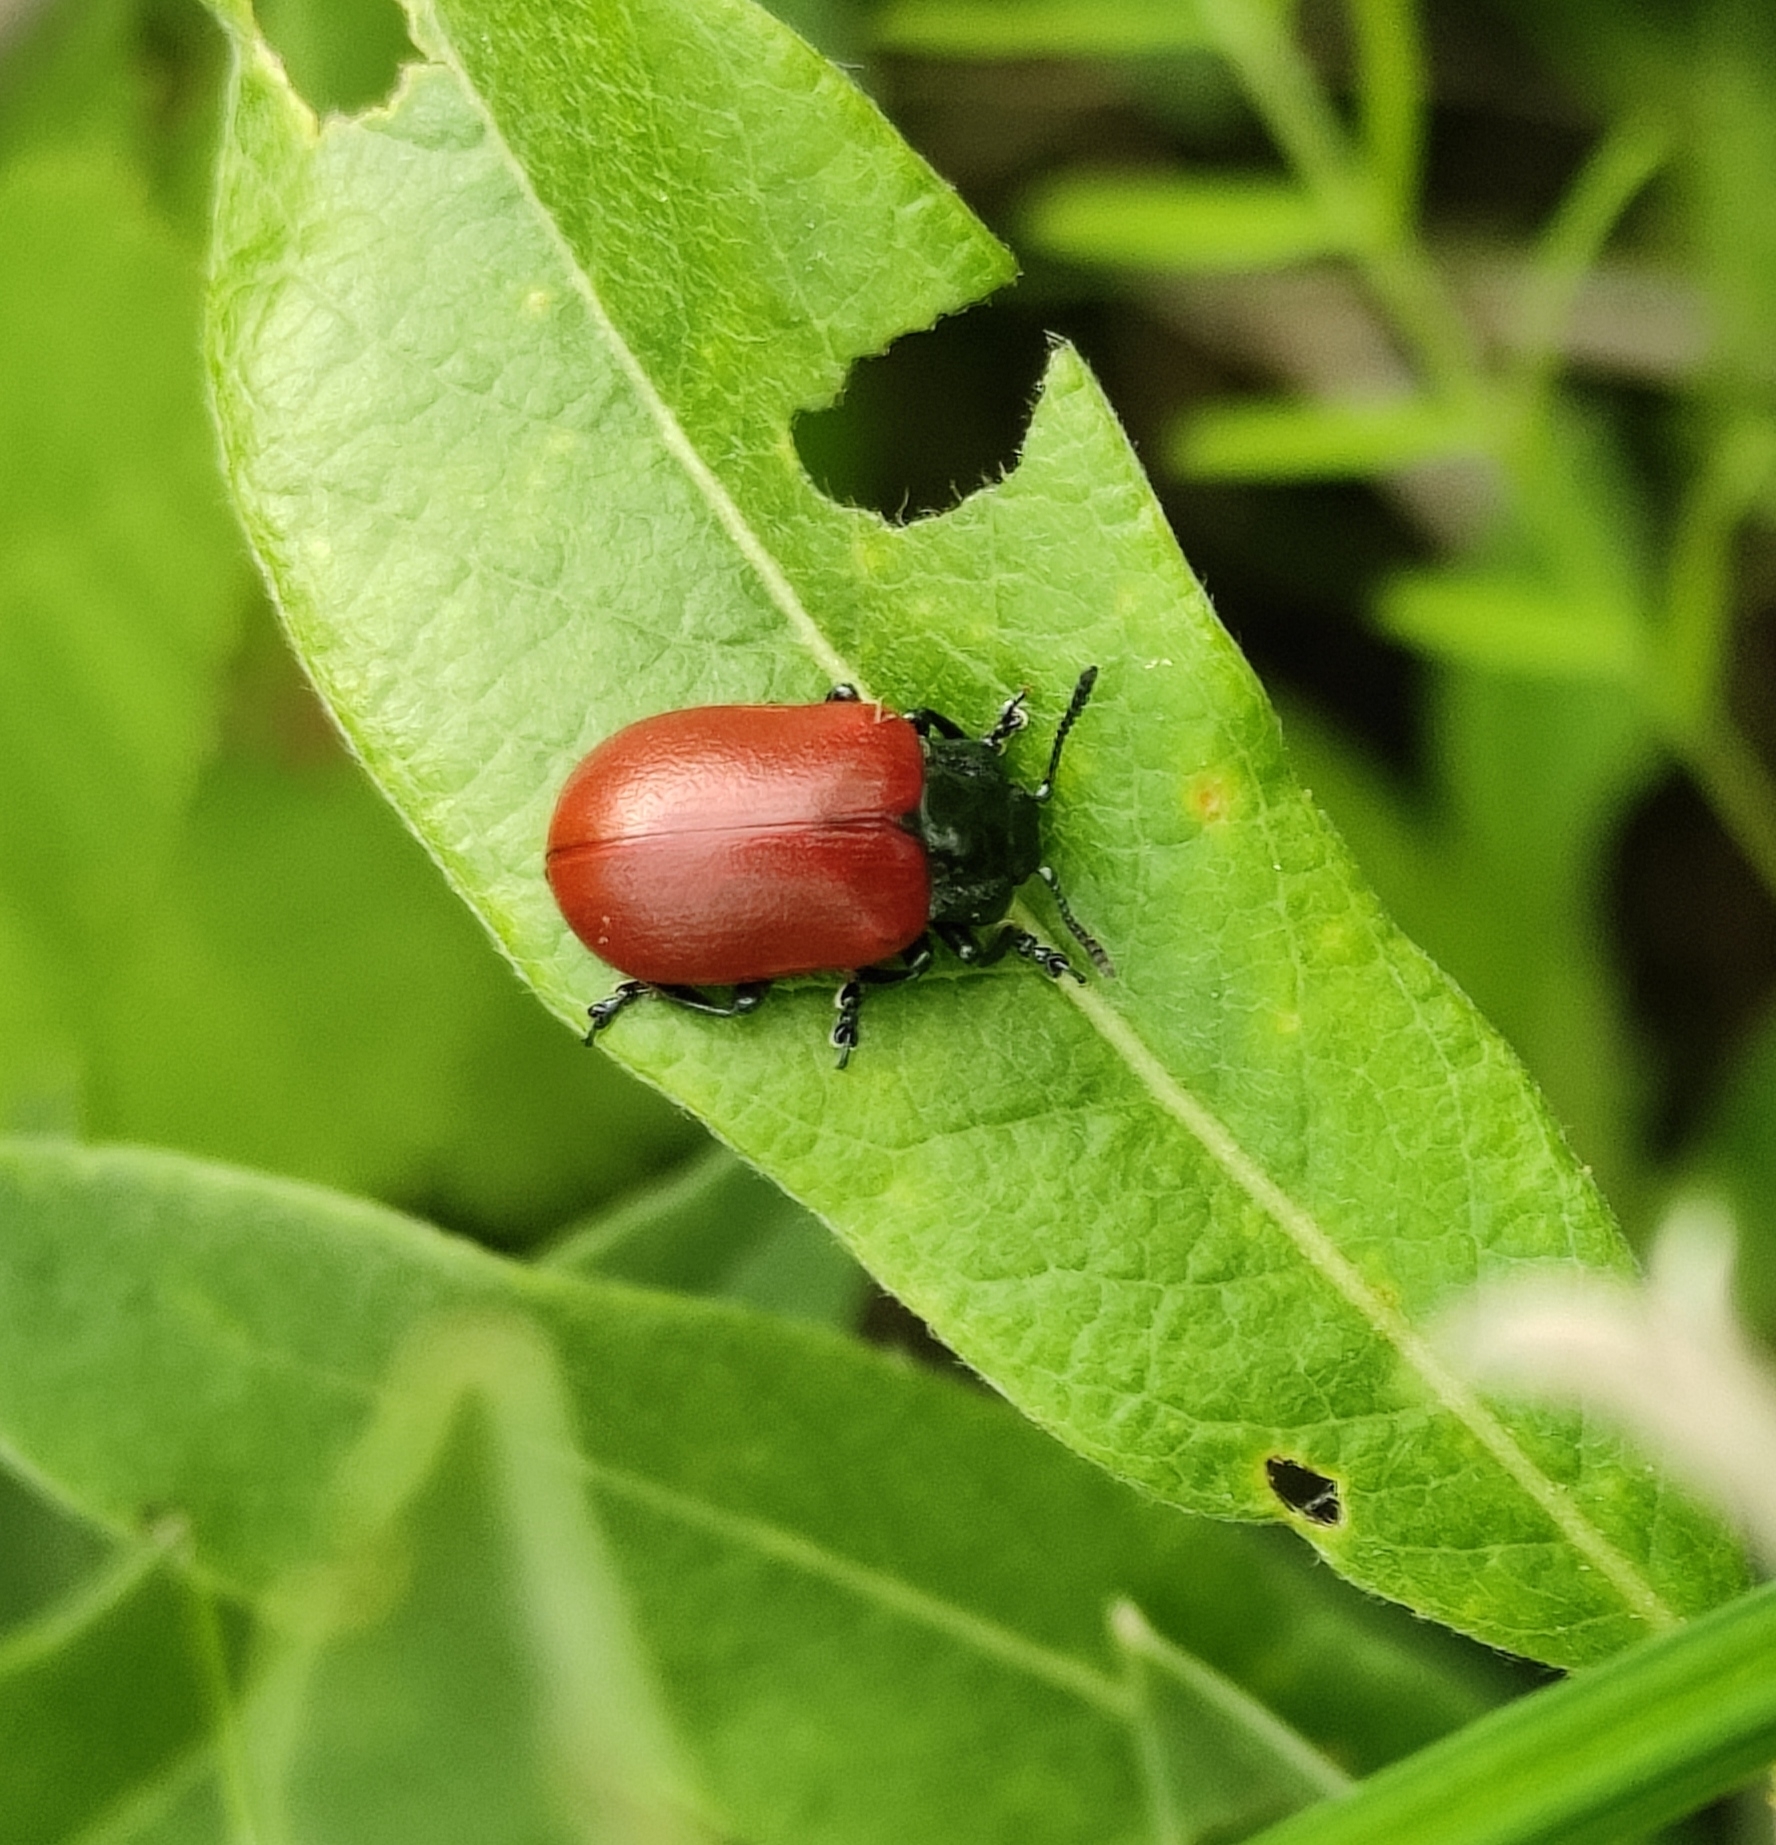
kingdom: Animalia
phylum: Arthropoda
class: Insecta
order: Coleoptera
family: Chrysomelidae
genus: Chrysomela
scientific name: Chrysomela populi
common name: Red poplar leaf beetle
